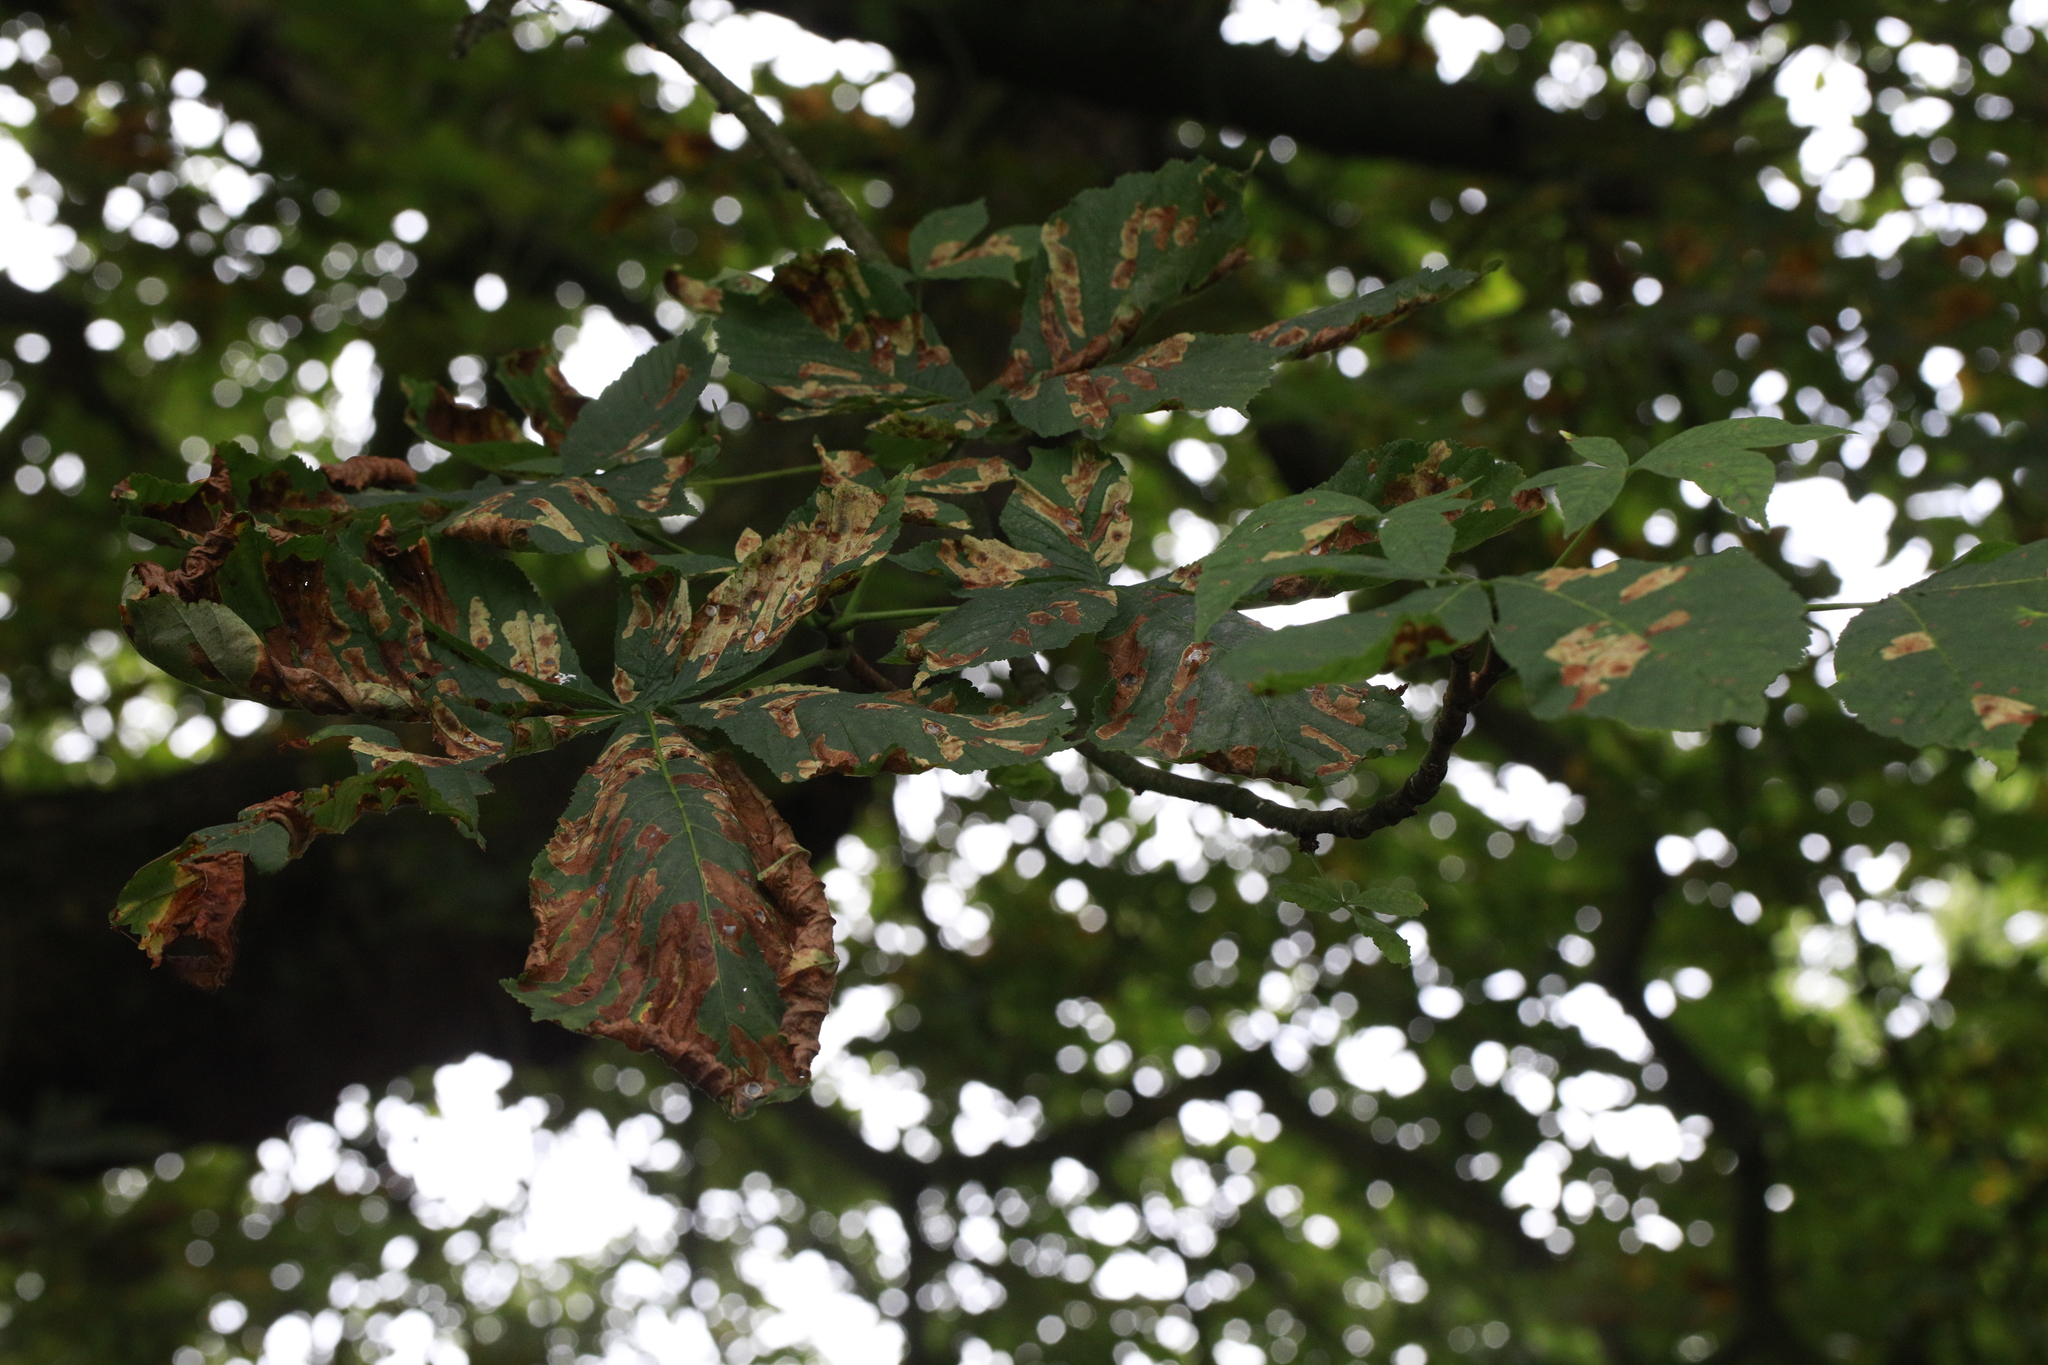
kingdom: Animalia
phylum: Arthropoda
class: Insecta
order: Lepidoptera
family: Gracillariidae
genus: Cameraria
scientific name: Cameraria ohridella
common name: Horse-chestnut leaf-miner
